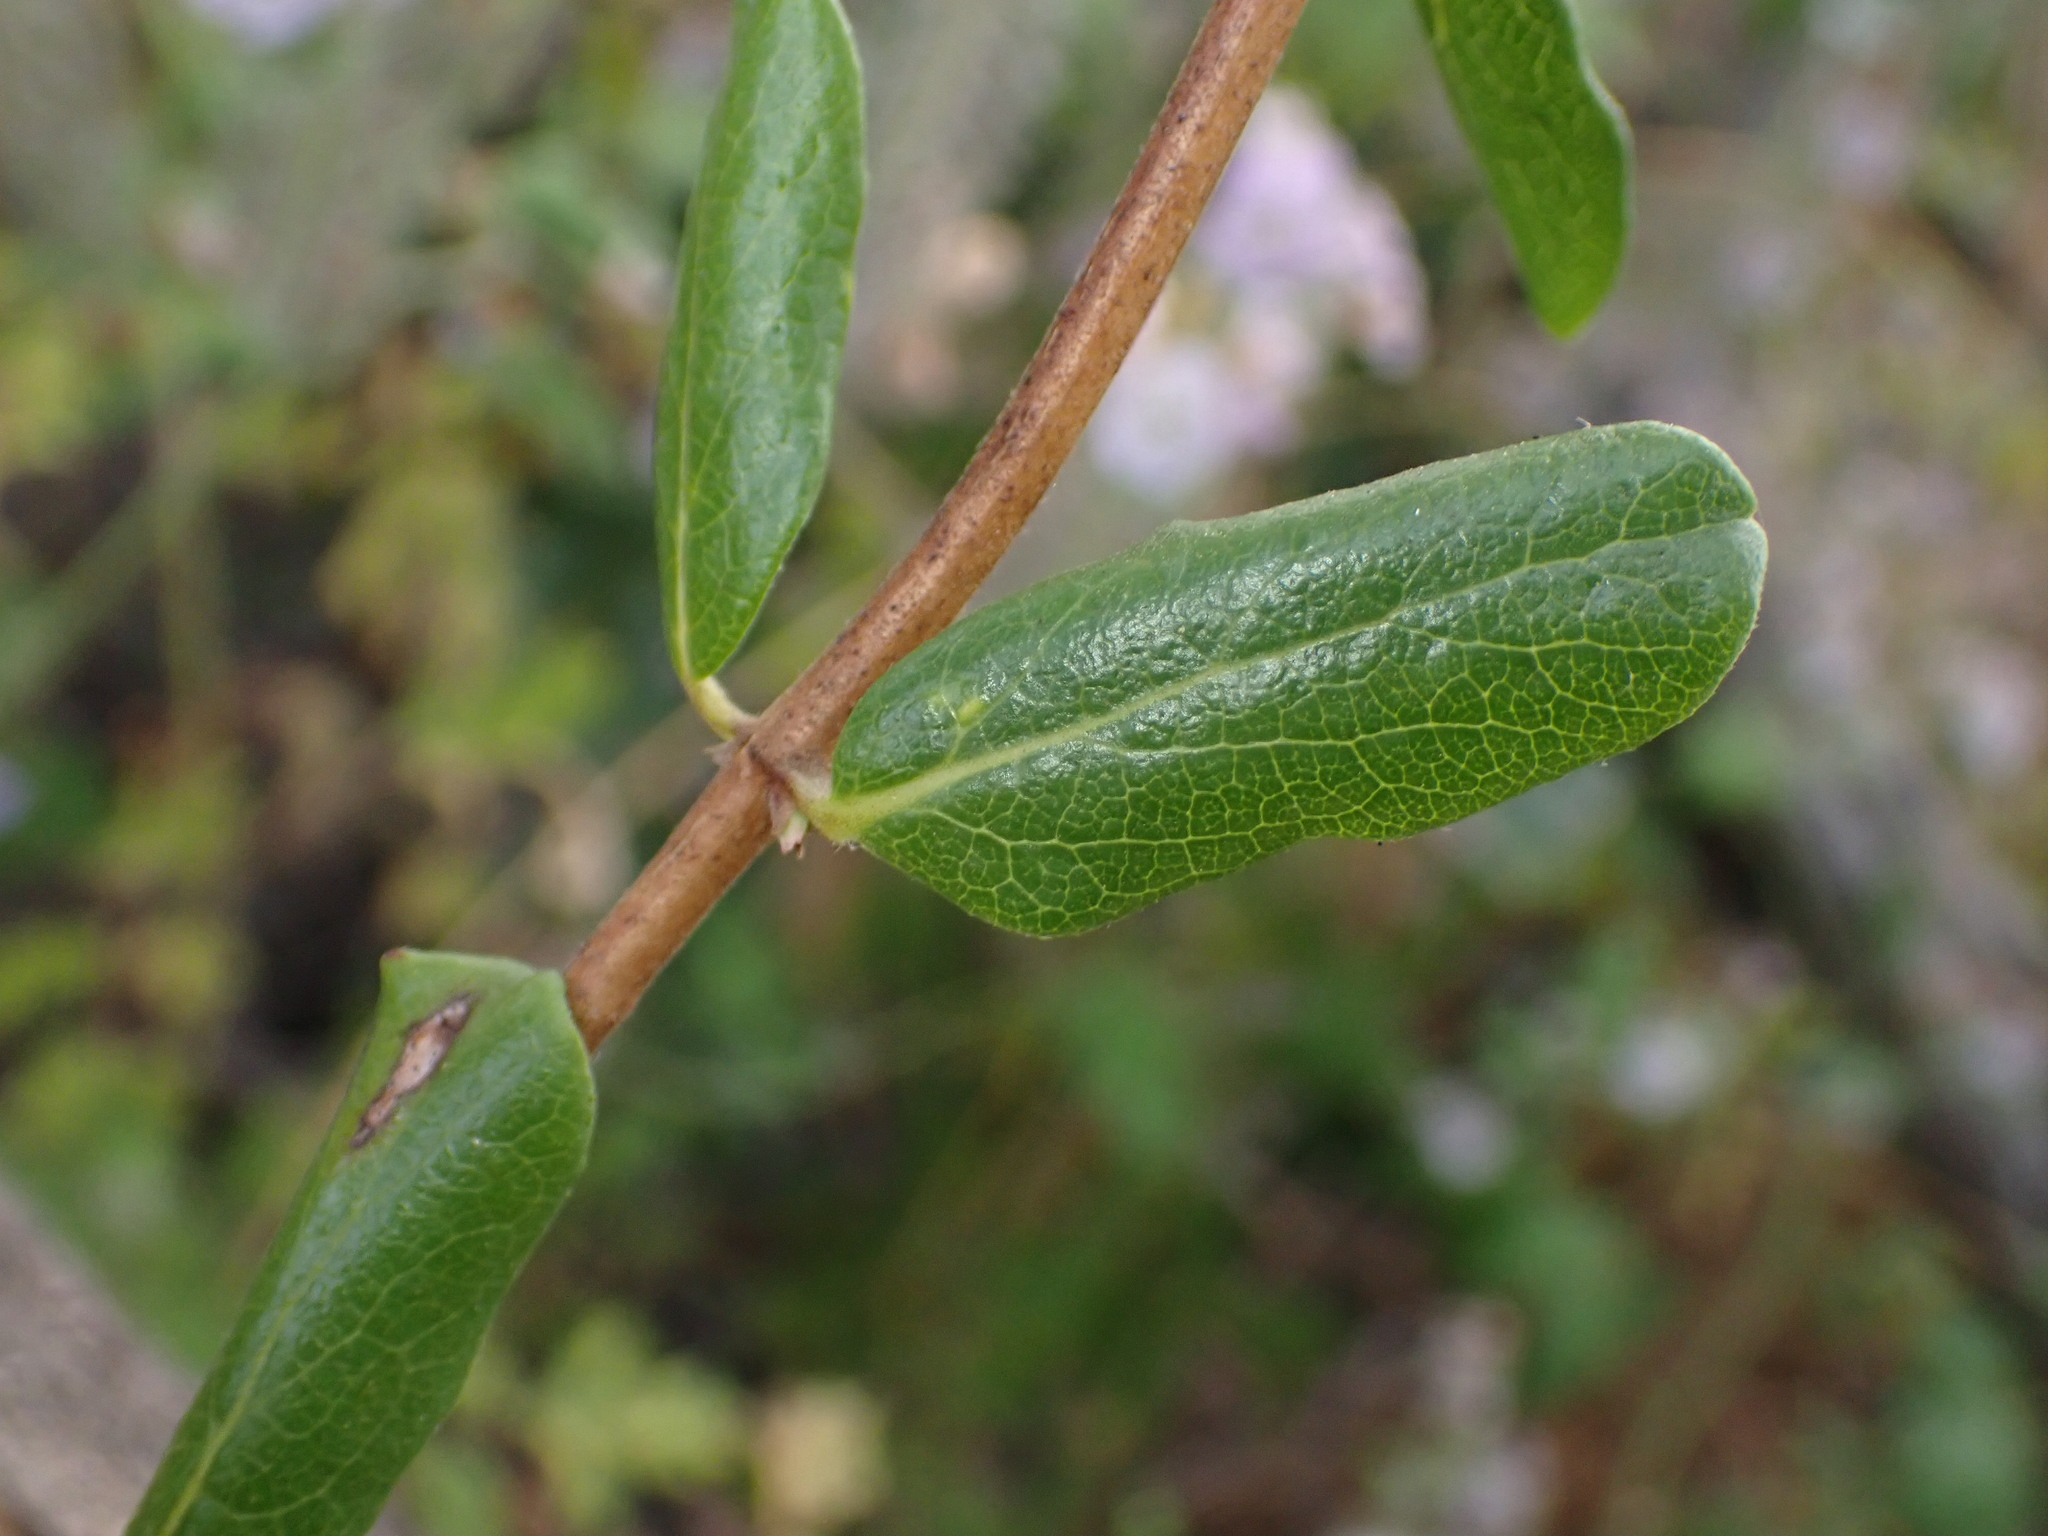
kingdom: Plantae
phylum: Tracheophyta
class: Magnoliopsida
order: Dipsacales
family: Caprifoliaceae
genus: Lonicera
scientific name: Lonicera subspicata
